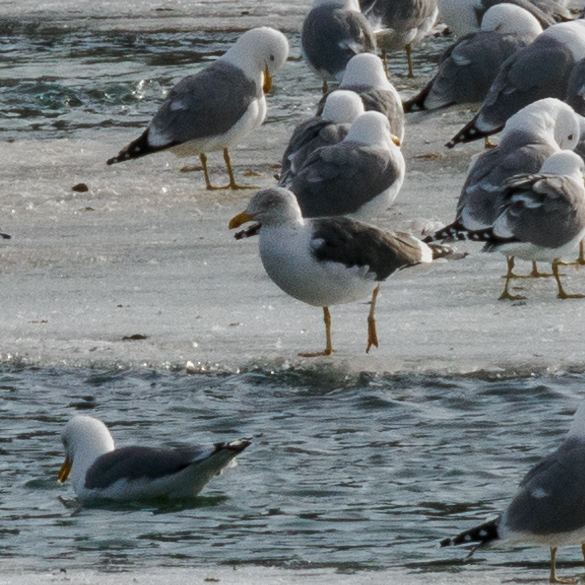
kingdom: Animalia
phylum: Chordata
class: Aves
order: Charadriiformes
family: Laridae
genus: Larus
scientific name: Larus fuscus
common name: Lesser black-backed gull
